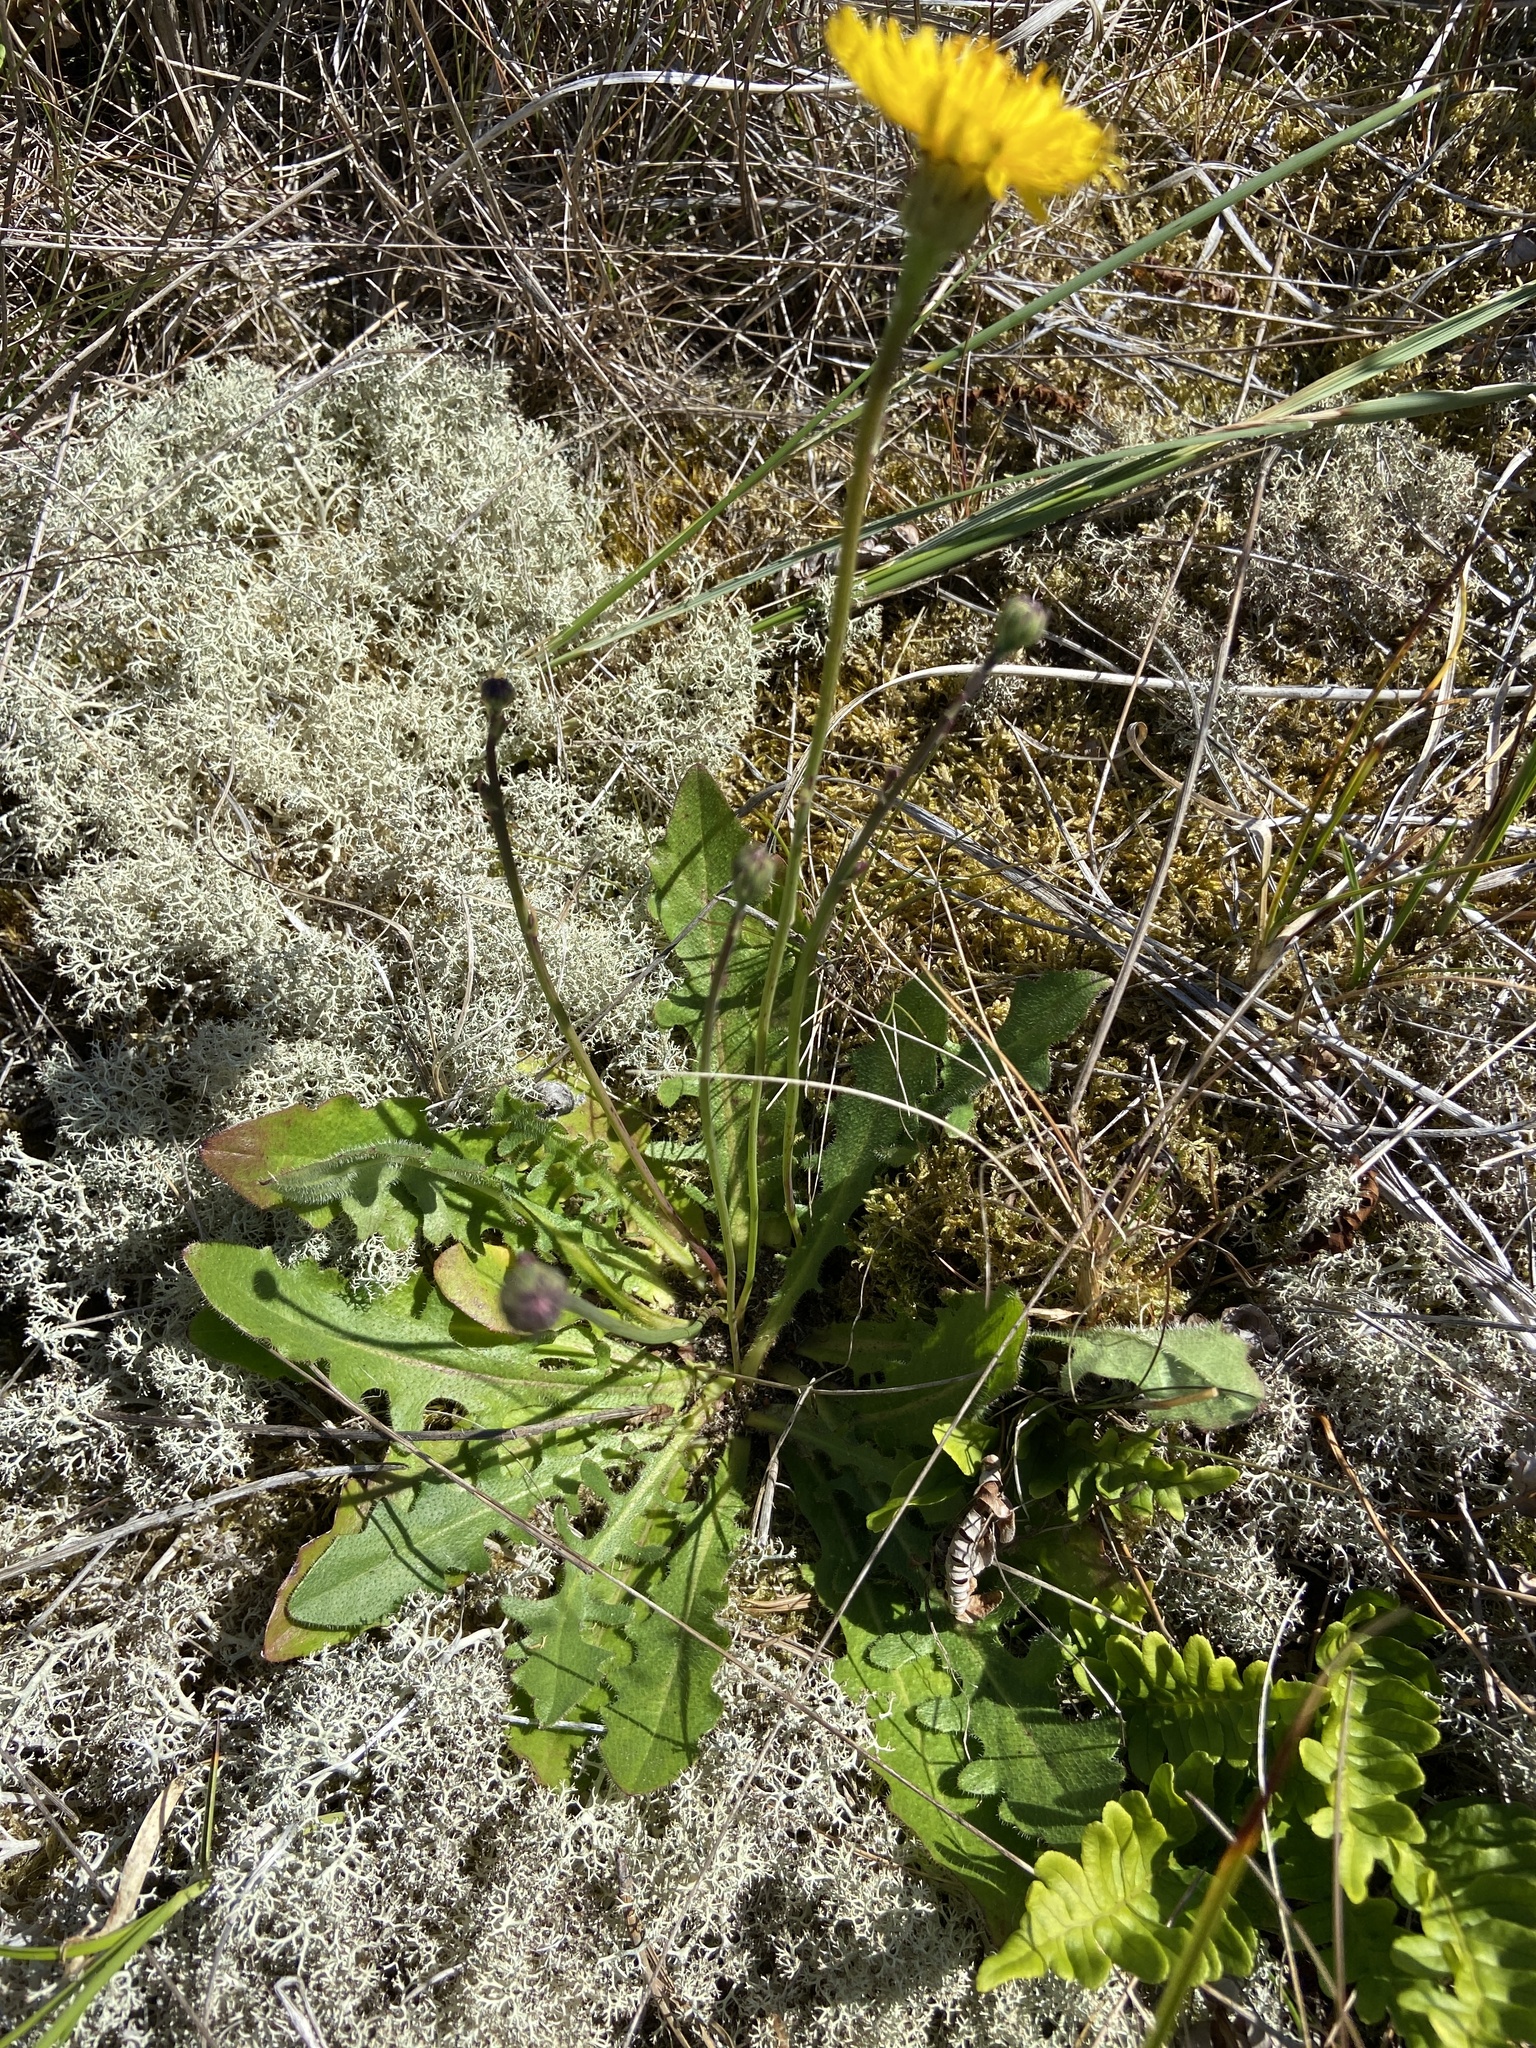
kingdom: Plantae
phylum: Tracheophyta
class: Magnoliopsida
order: Asterales
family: Asteraceae
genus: Hypochaeris
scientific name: Hypochaeris radicata
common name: Flatweed
